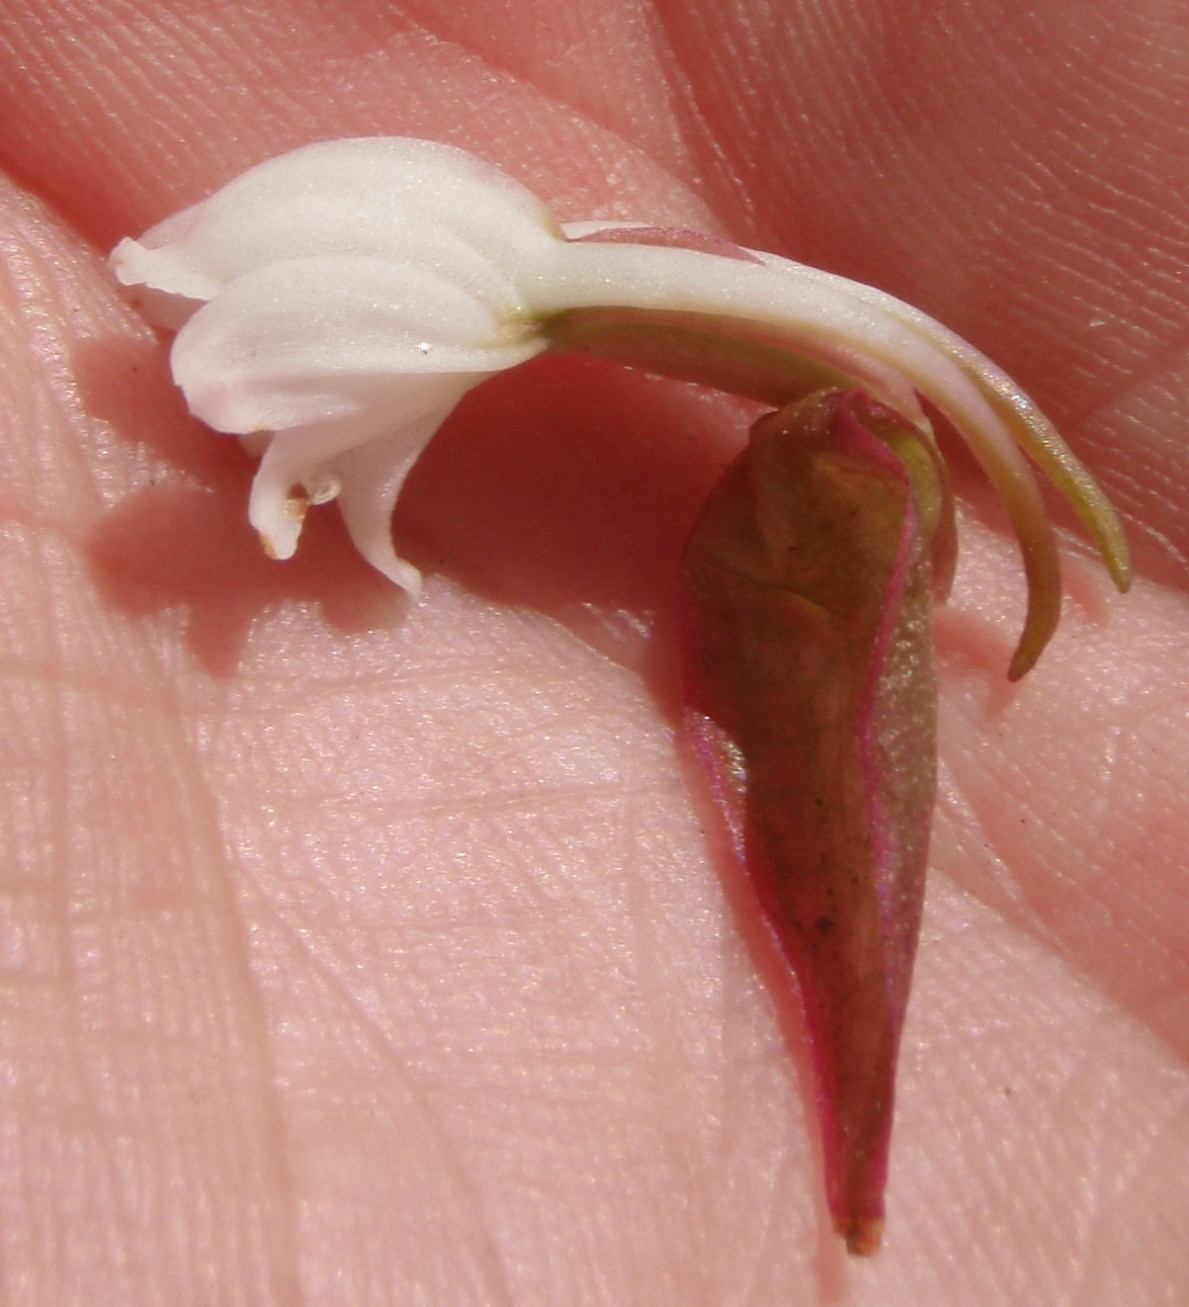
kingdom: Plantae
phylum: Tracheophyta
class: Liliopsida
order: Asparagales
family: Orchidaceae
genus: Satyrium
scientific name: Satyrium acuminatum
